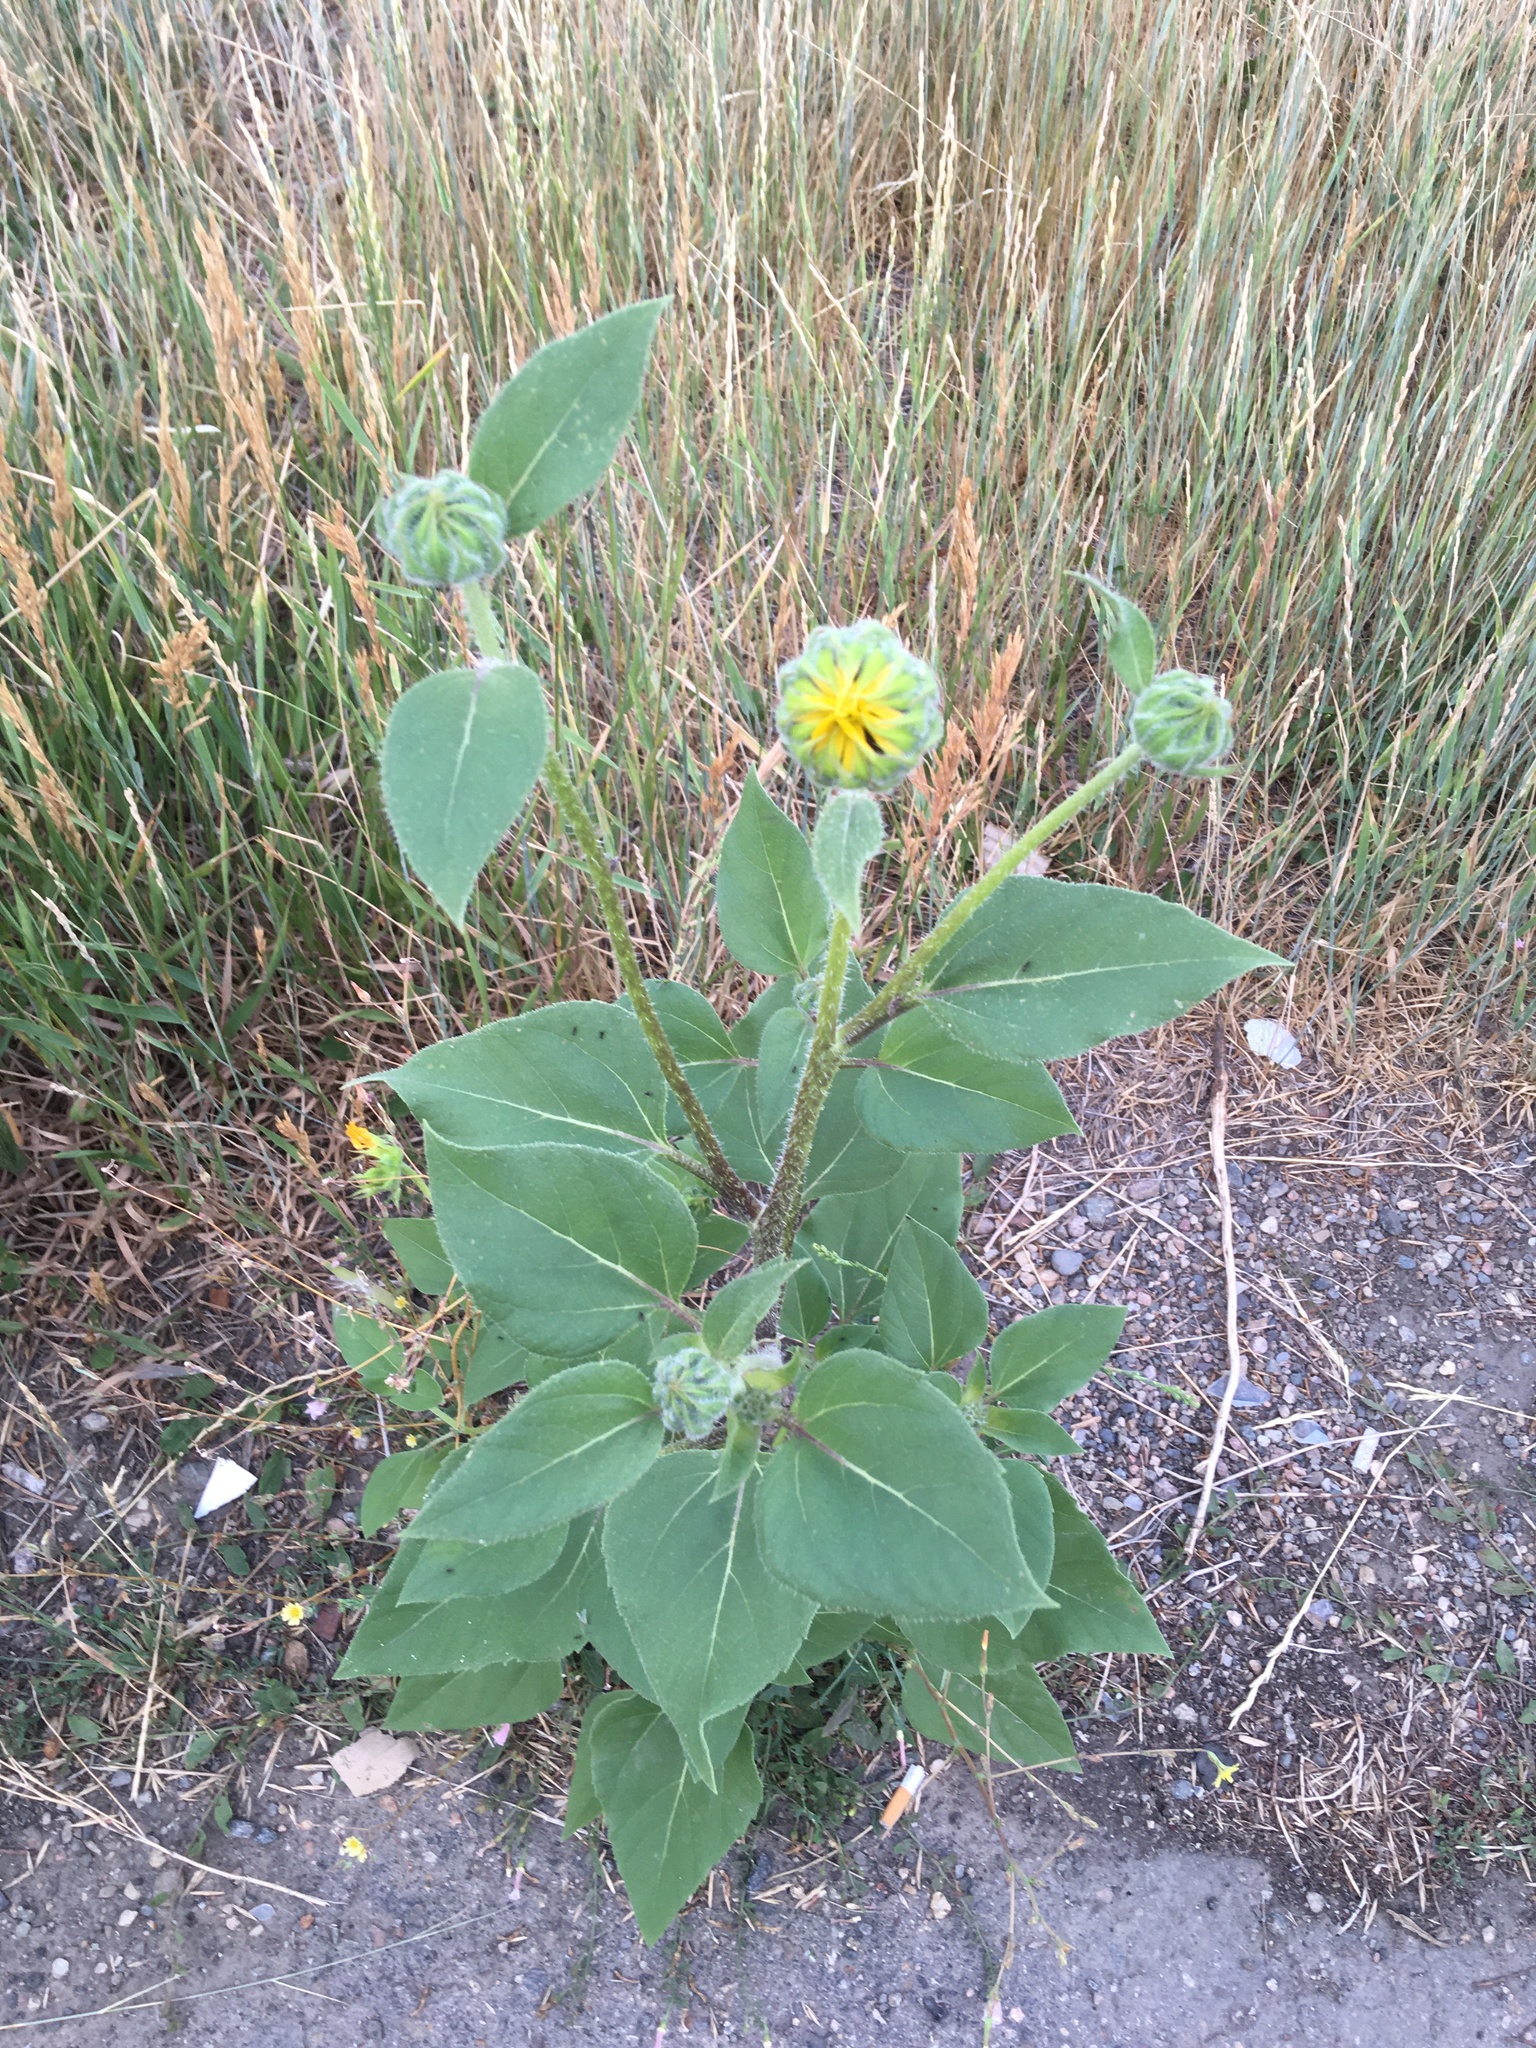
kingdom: Plantae
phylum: Tracheophyta
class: Magnoliopsida
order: Asterales
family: Asteraceae
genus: Helianthus
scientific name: Helianthus annuus
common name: Sunflower
